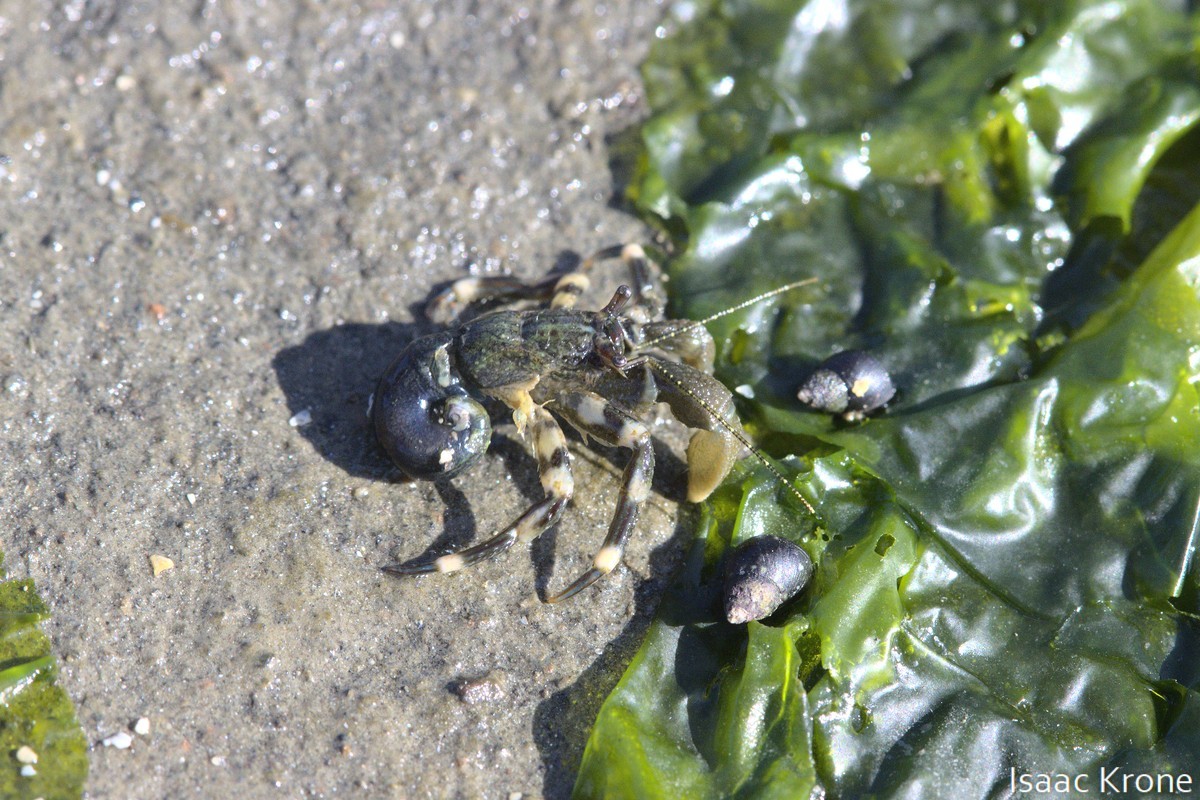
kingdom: Animalia
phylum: Arthropoda
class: Malacostraca
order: Decapoda
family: Paguridae
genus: Pagurus
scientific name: Pagurus hirsutiusculus
